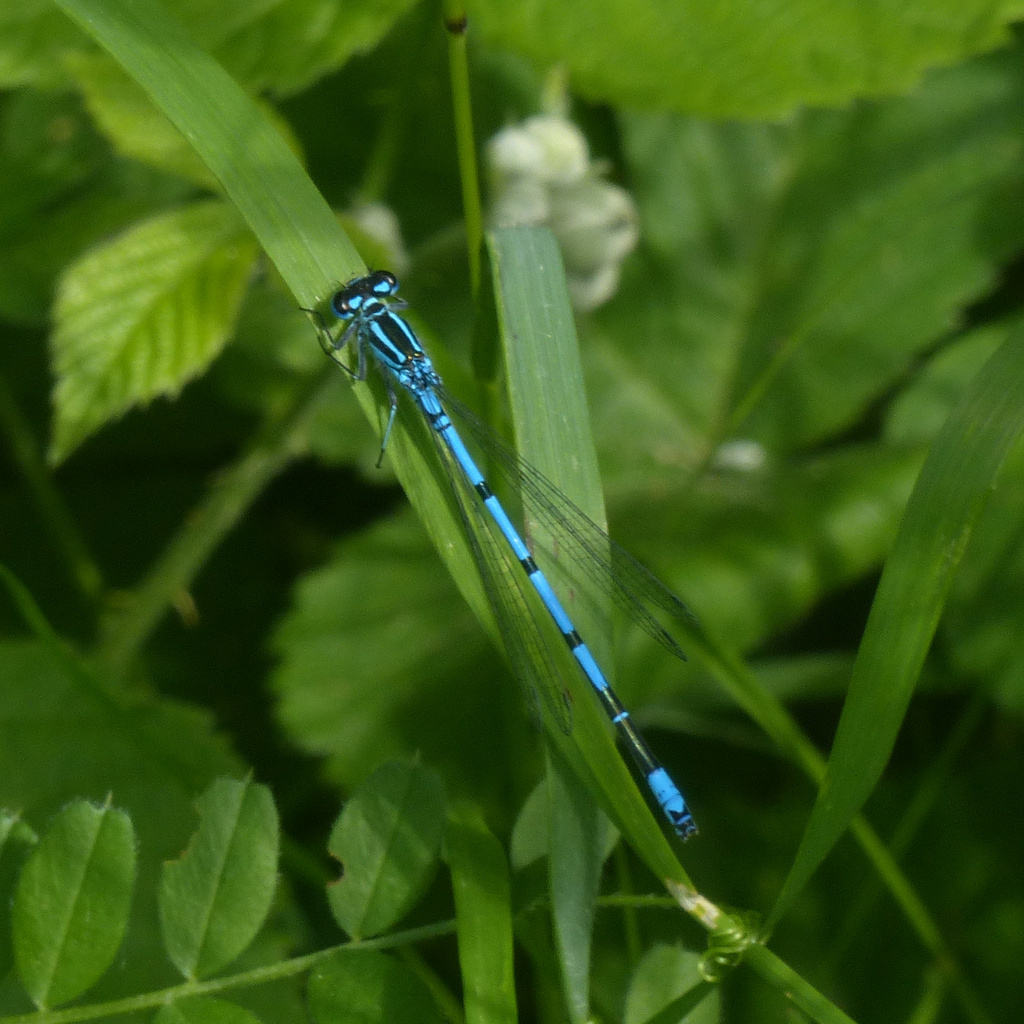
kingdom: Animalia
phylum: Arthropoda
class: Insecta
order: Odonata
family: Coenagrionidae
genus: Coenagrion
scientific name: Coenagrion puella
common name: Azure damselfly
